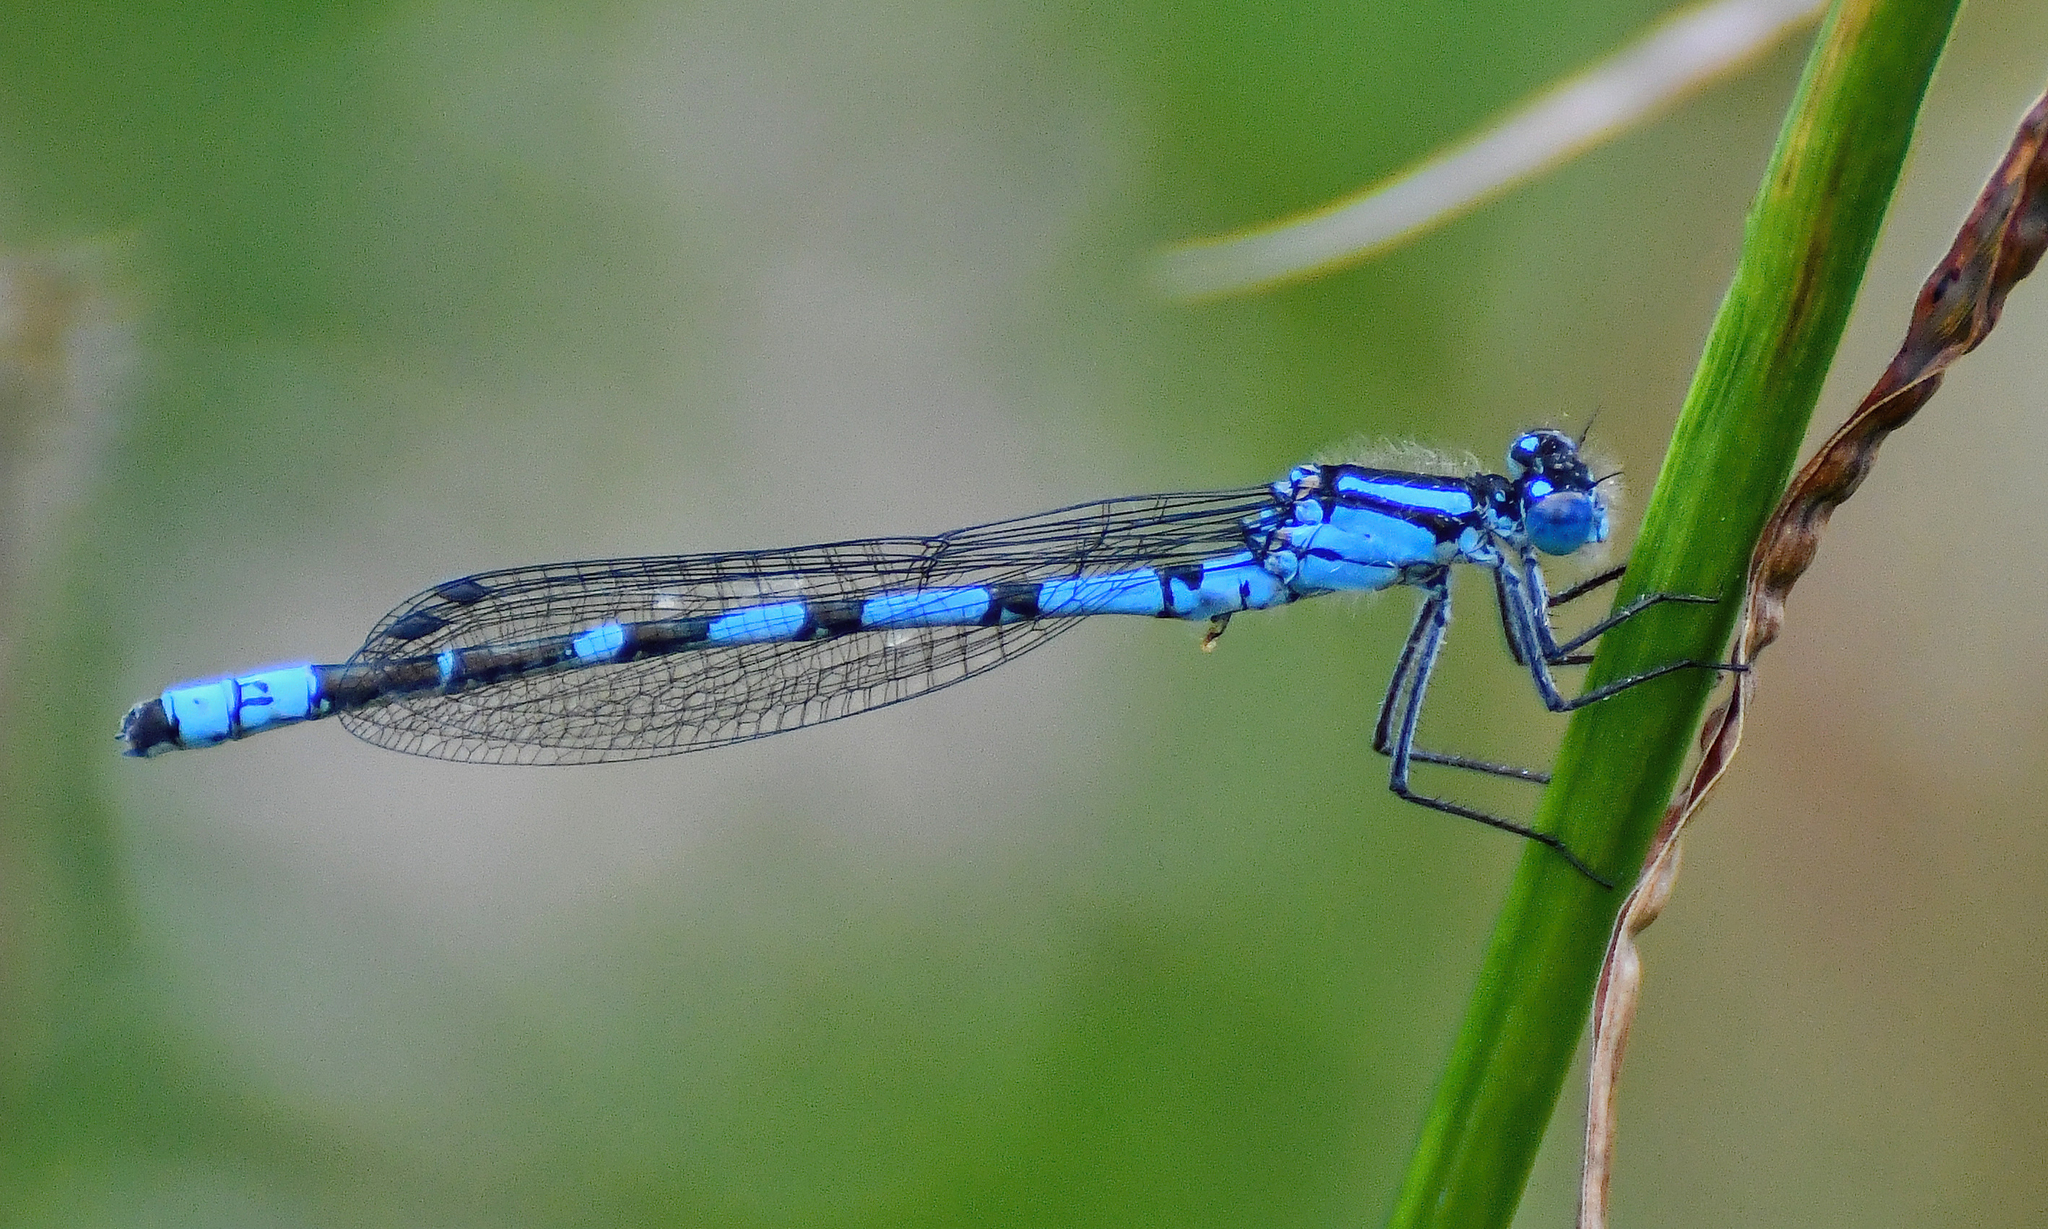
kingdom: Animalia
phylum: Arthropoda
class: Insecta
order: Odonata
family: Coenagrionidae
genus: Enallagma
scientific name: Enallagma cyathigerum
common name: Common blue damselfly
